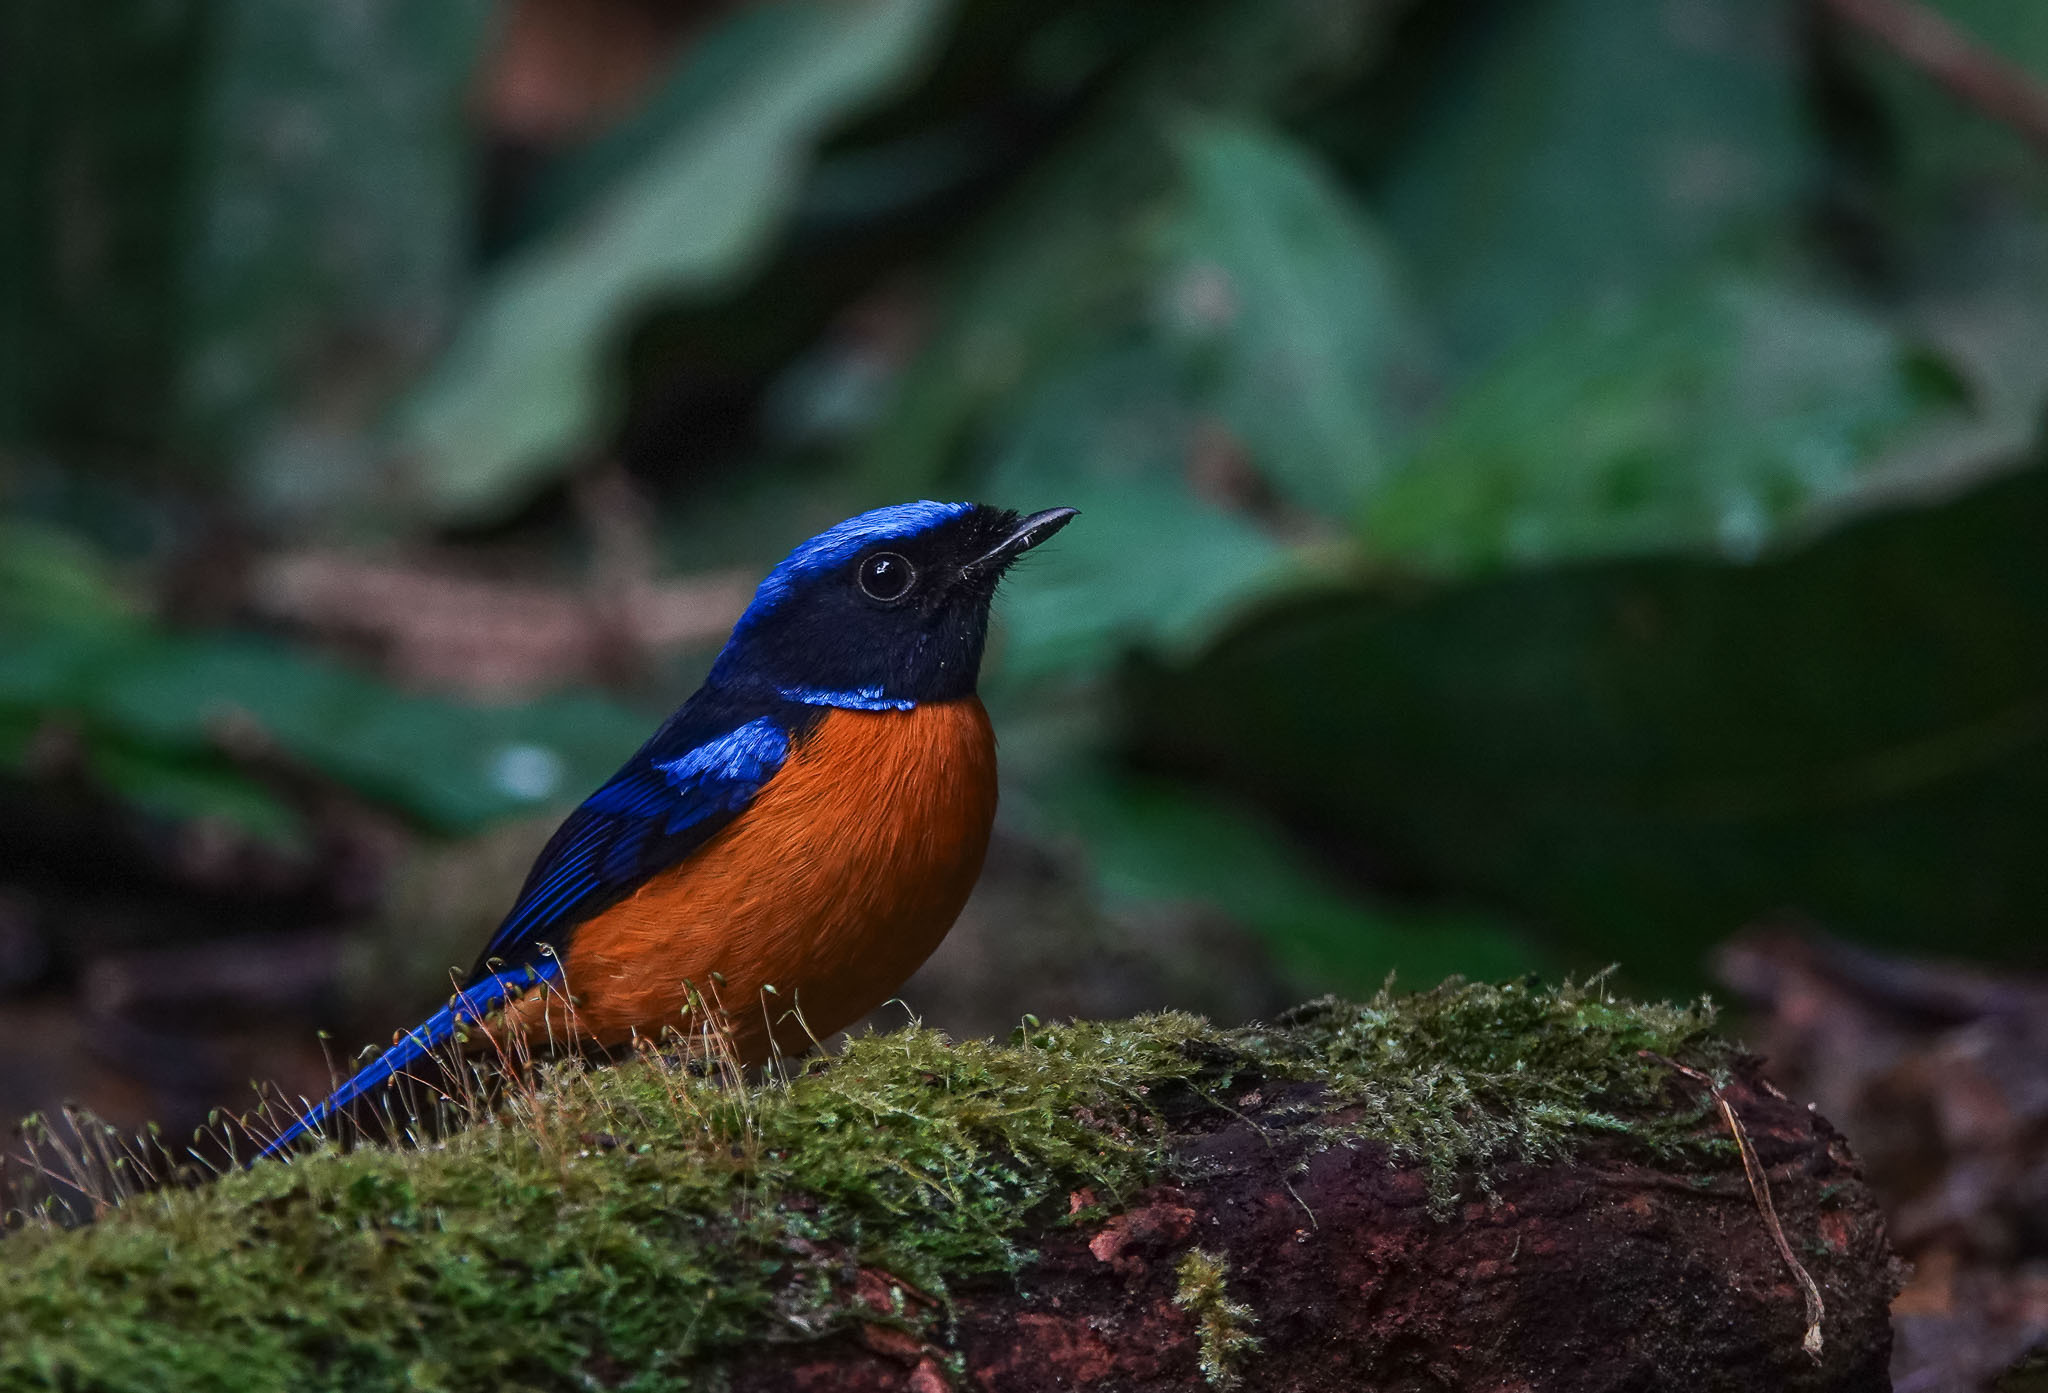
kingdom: Animalia
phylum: Chordata
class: Aves
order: Passeriformes
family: Muscicapidae
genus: Niltava
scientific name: Niltava sundara
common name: Rufous-bellied niltava
